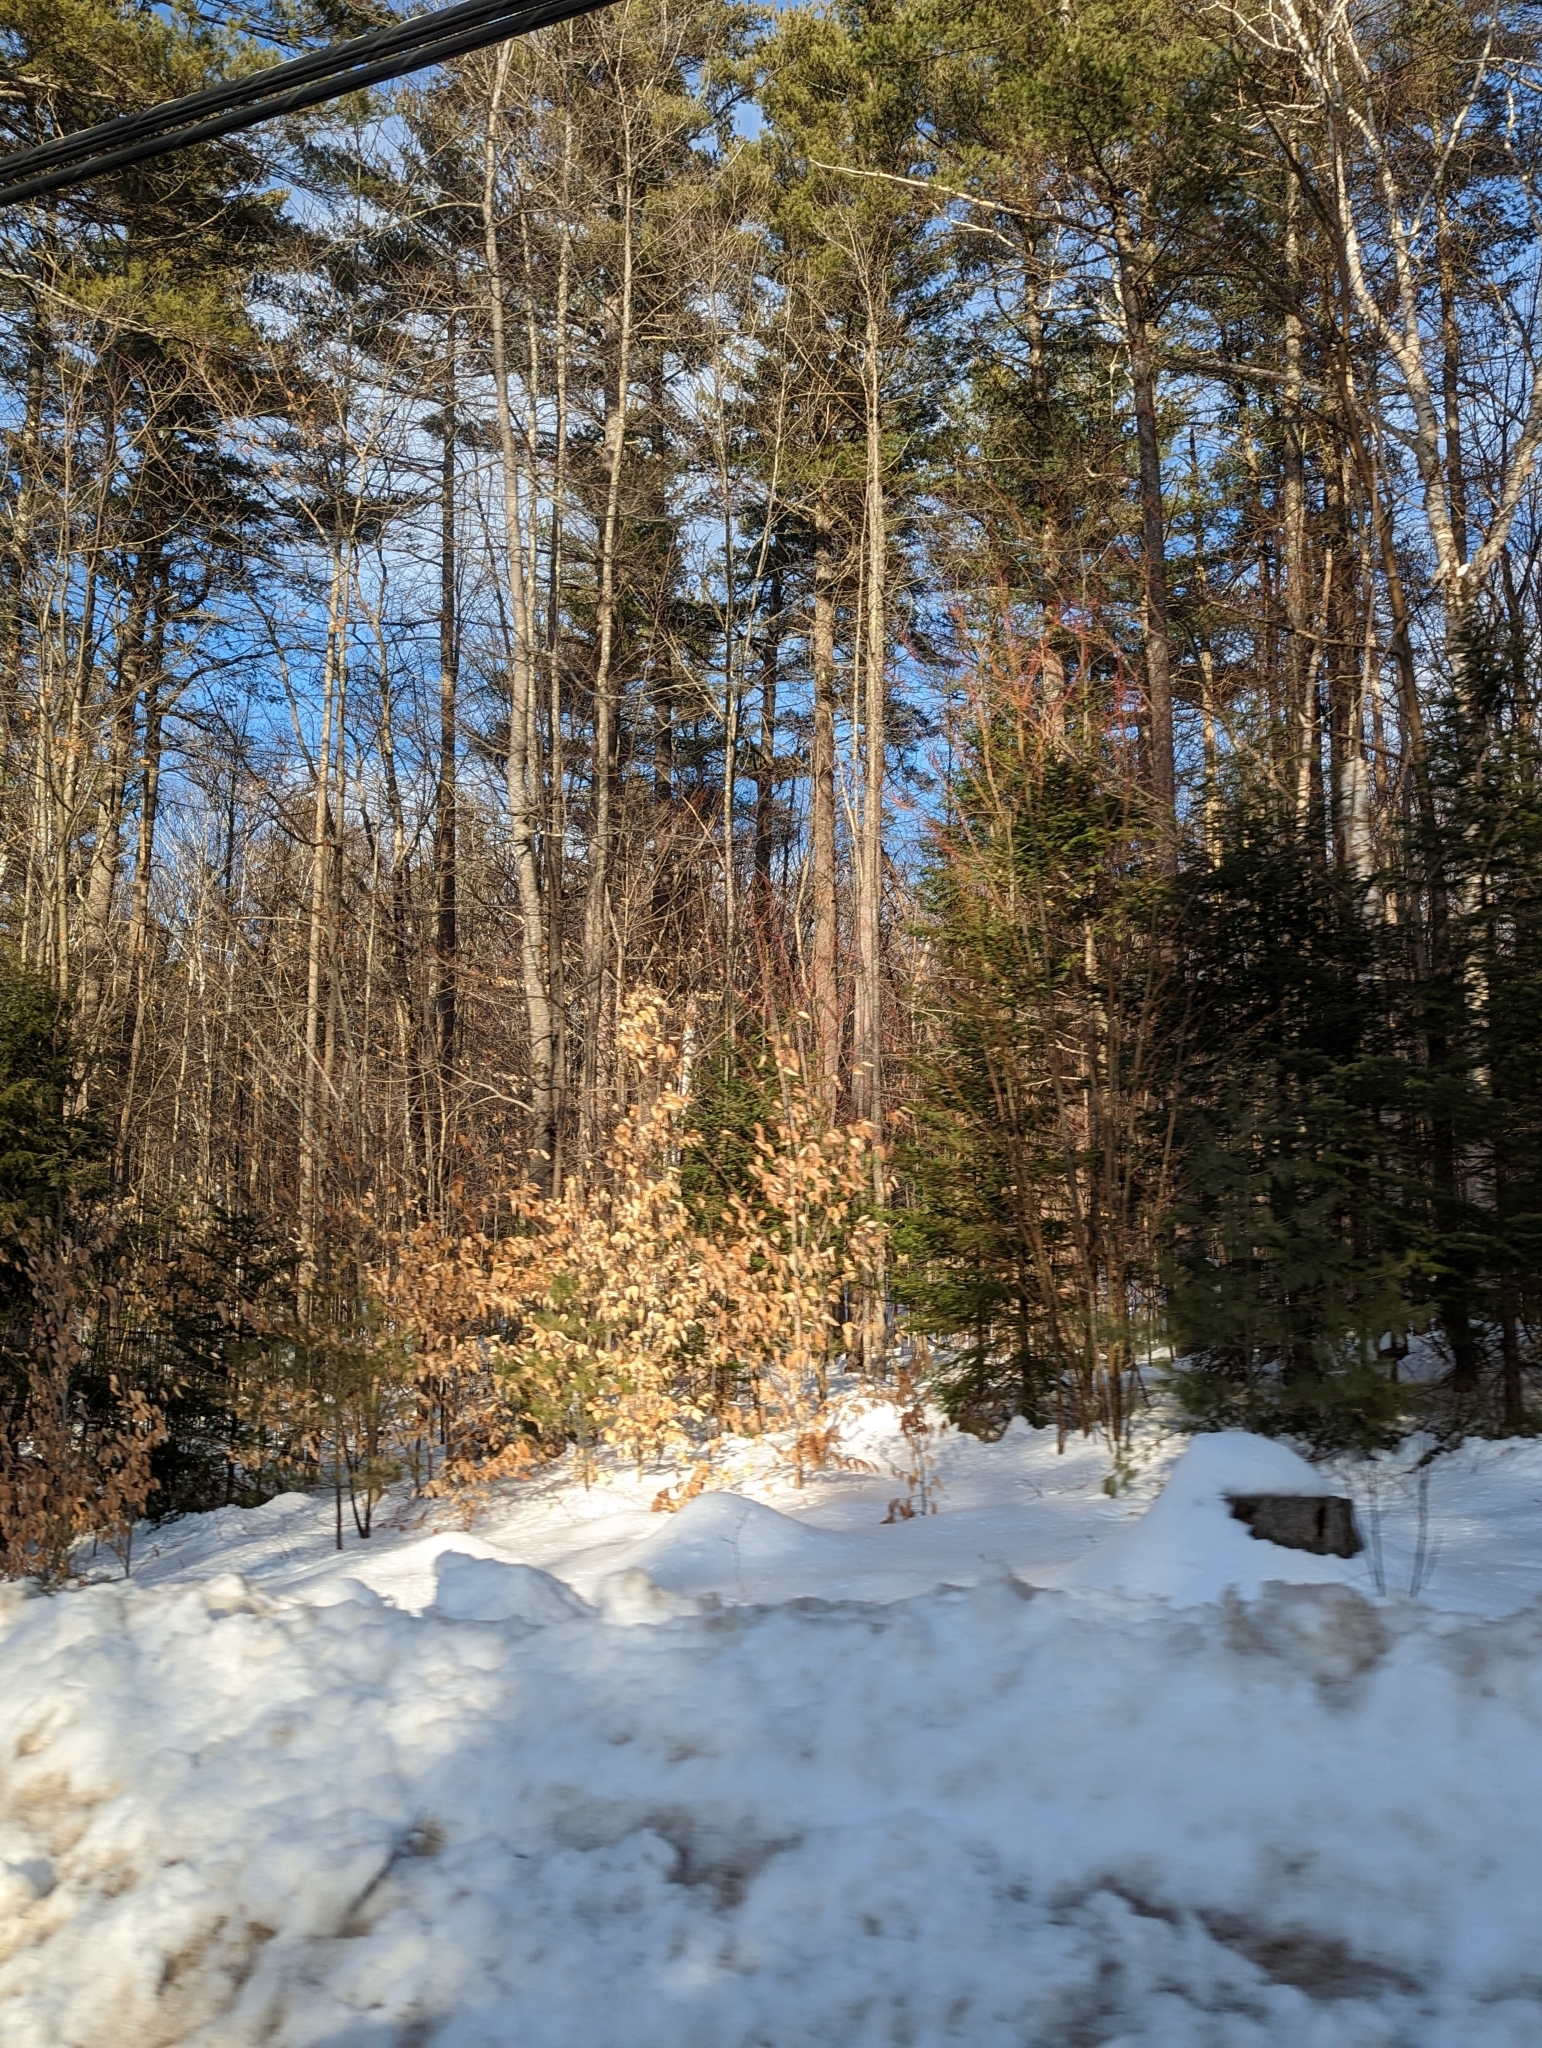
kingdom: Plantae
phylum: Tracheophyta
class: Magnoliopsida
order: Fagales
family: Fagaceae
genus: Fagus
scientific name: Fagus grandifolia
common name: American beech
